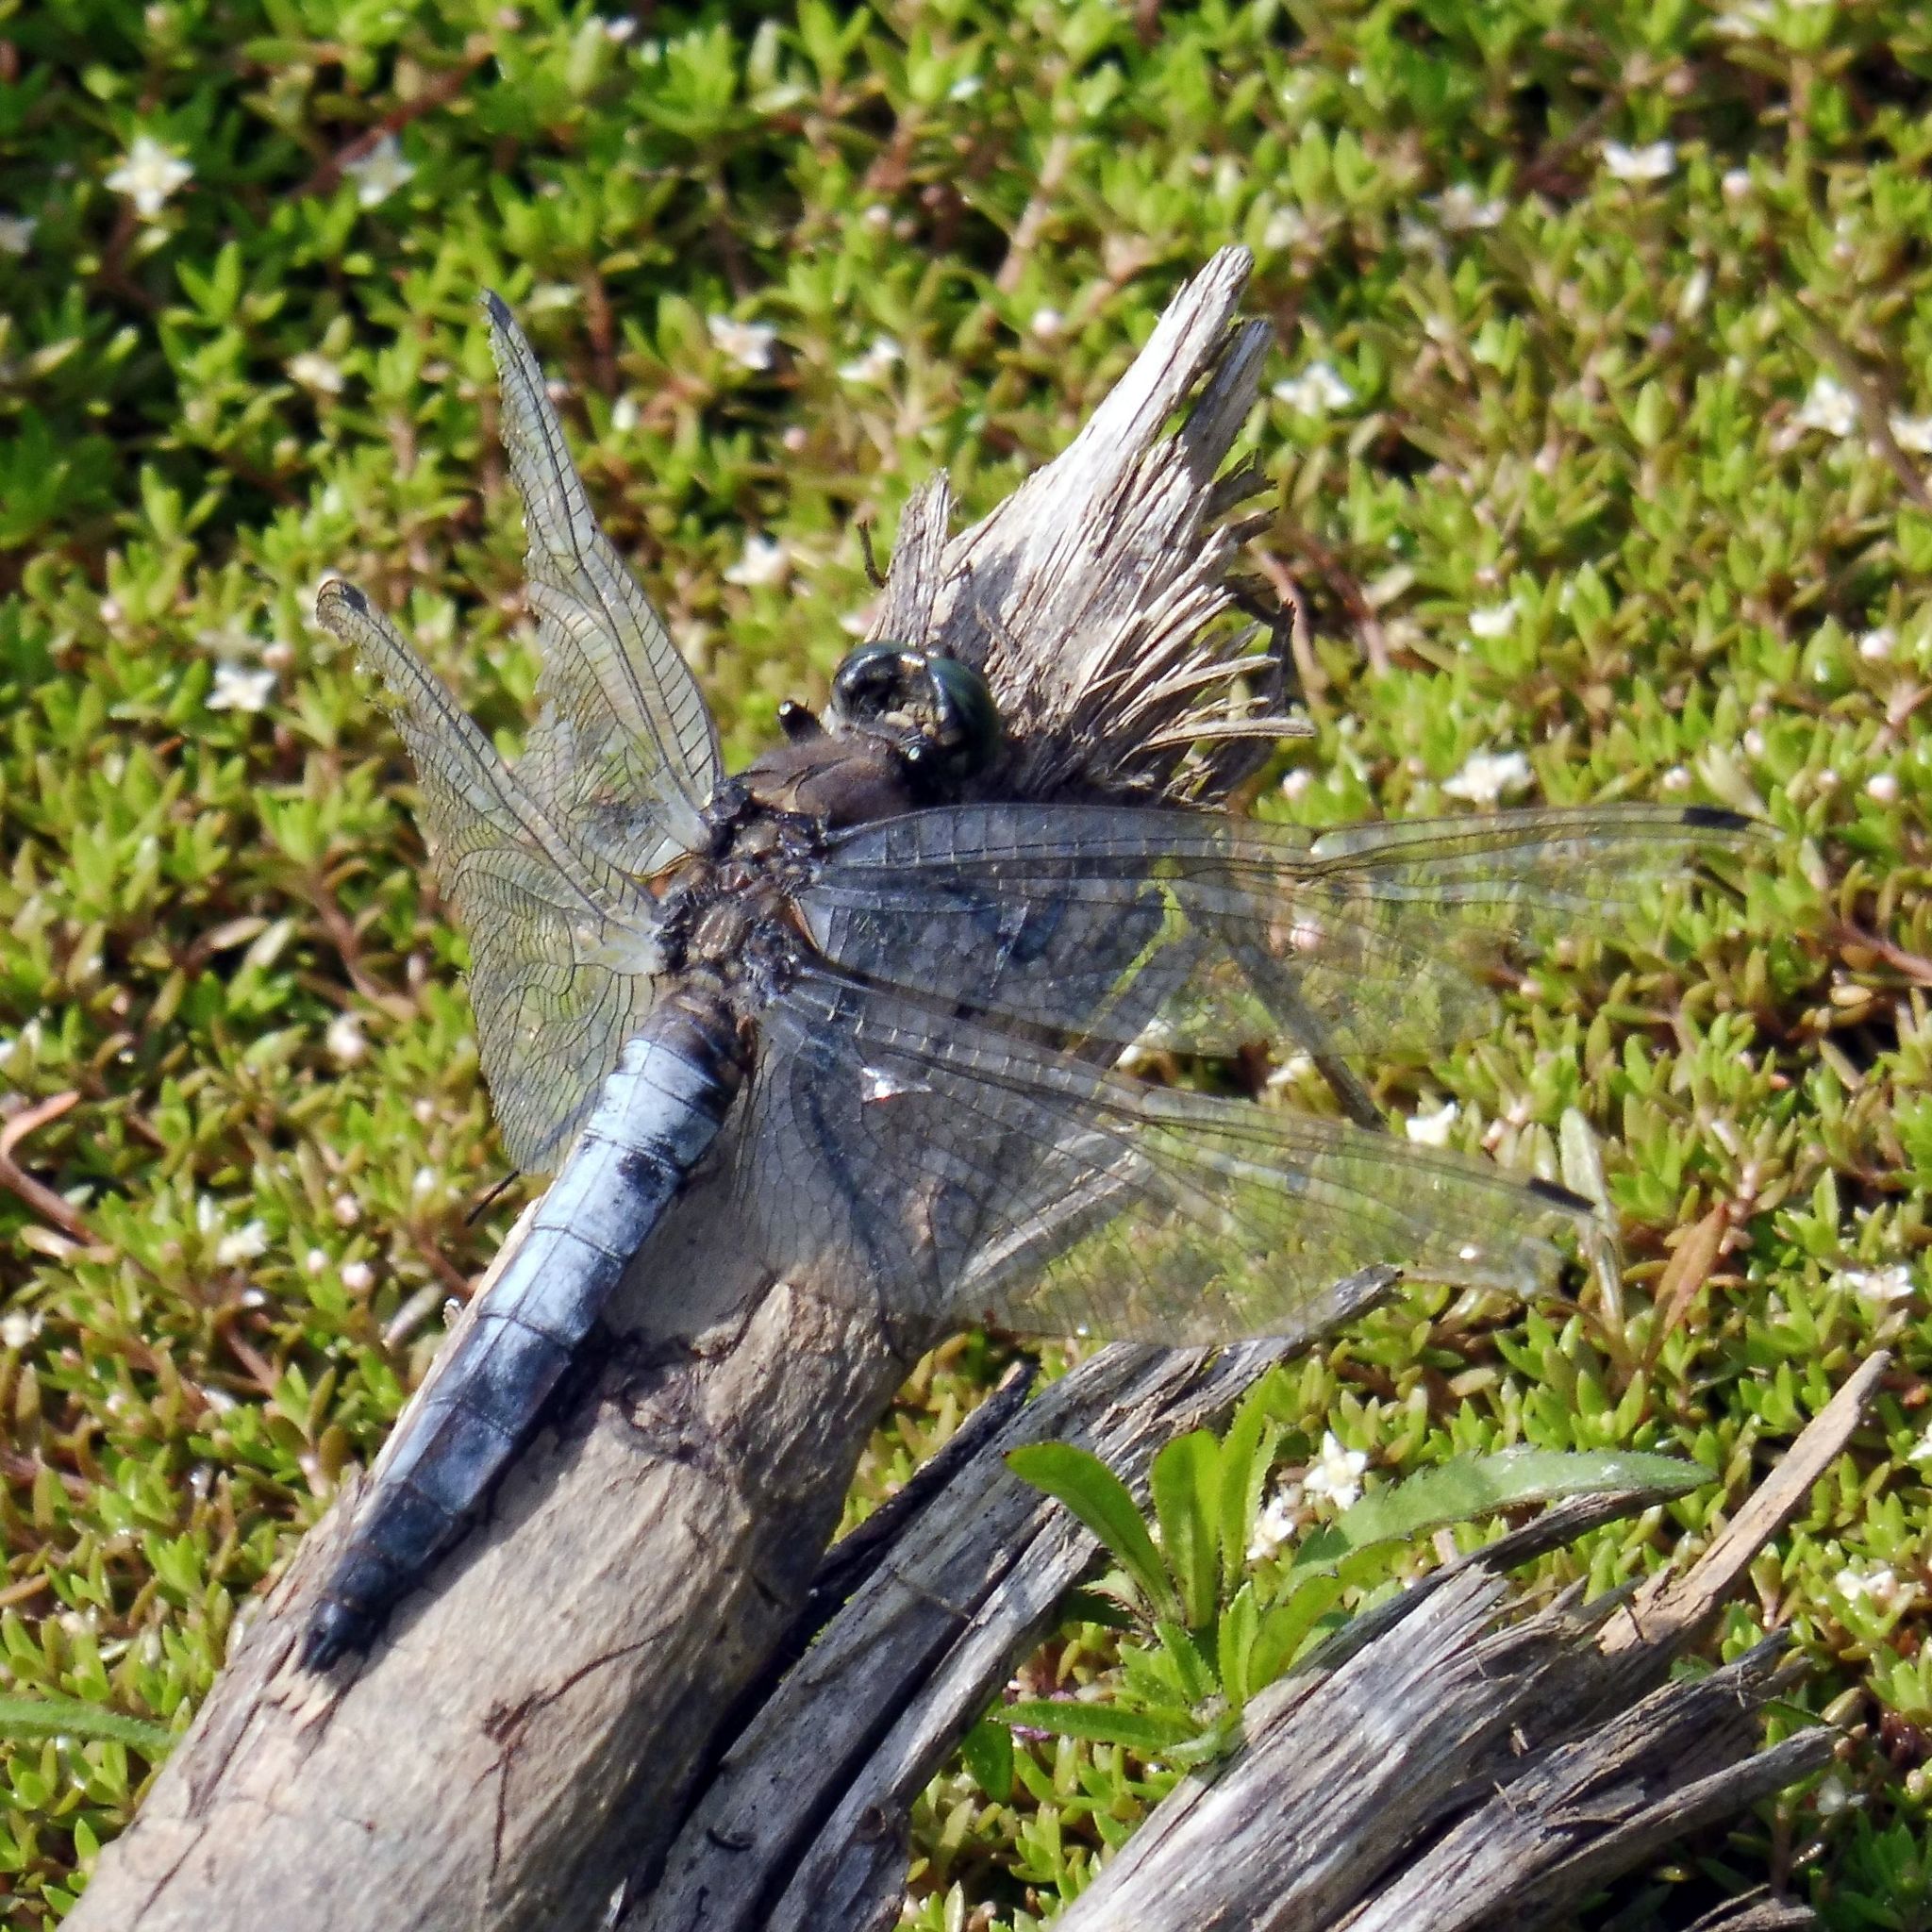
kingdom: Animalia
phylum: Arthropoda
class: Insecta
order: Odonata
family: Libellulidae
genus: Orthetrum
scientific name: Orthetrum cancellatum
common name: Black-tailed skimmer
